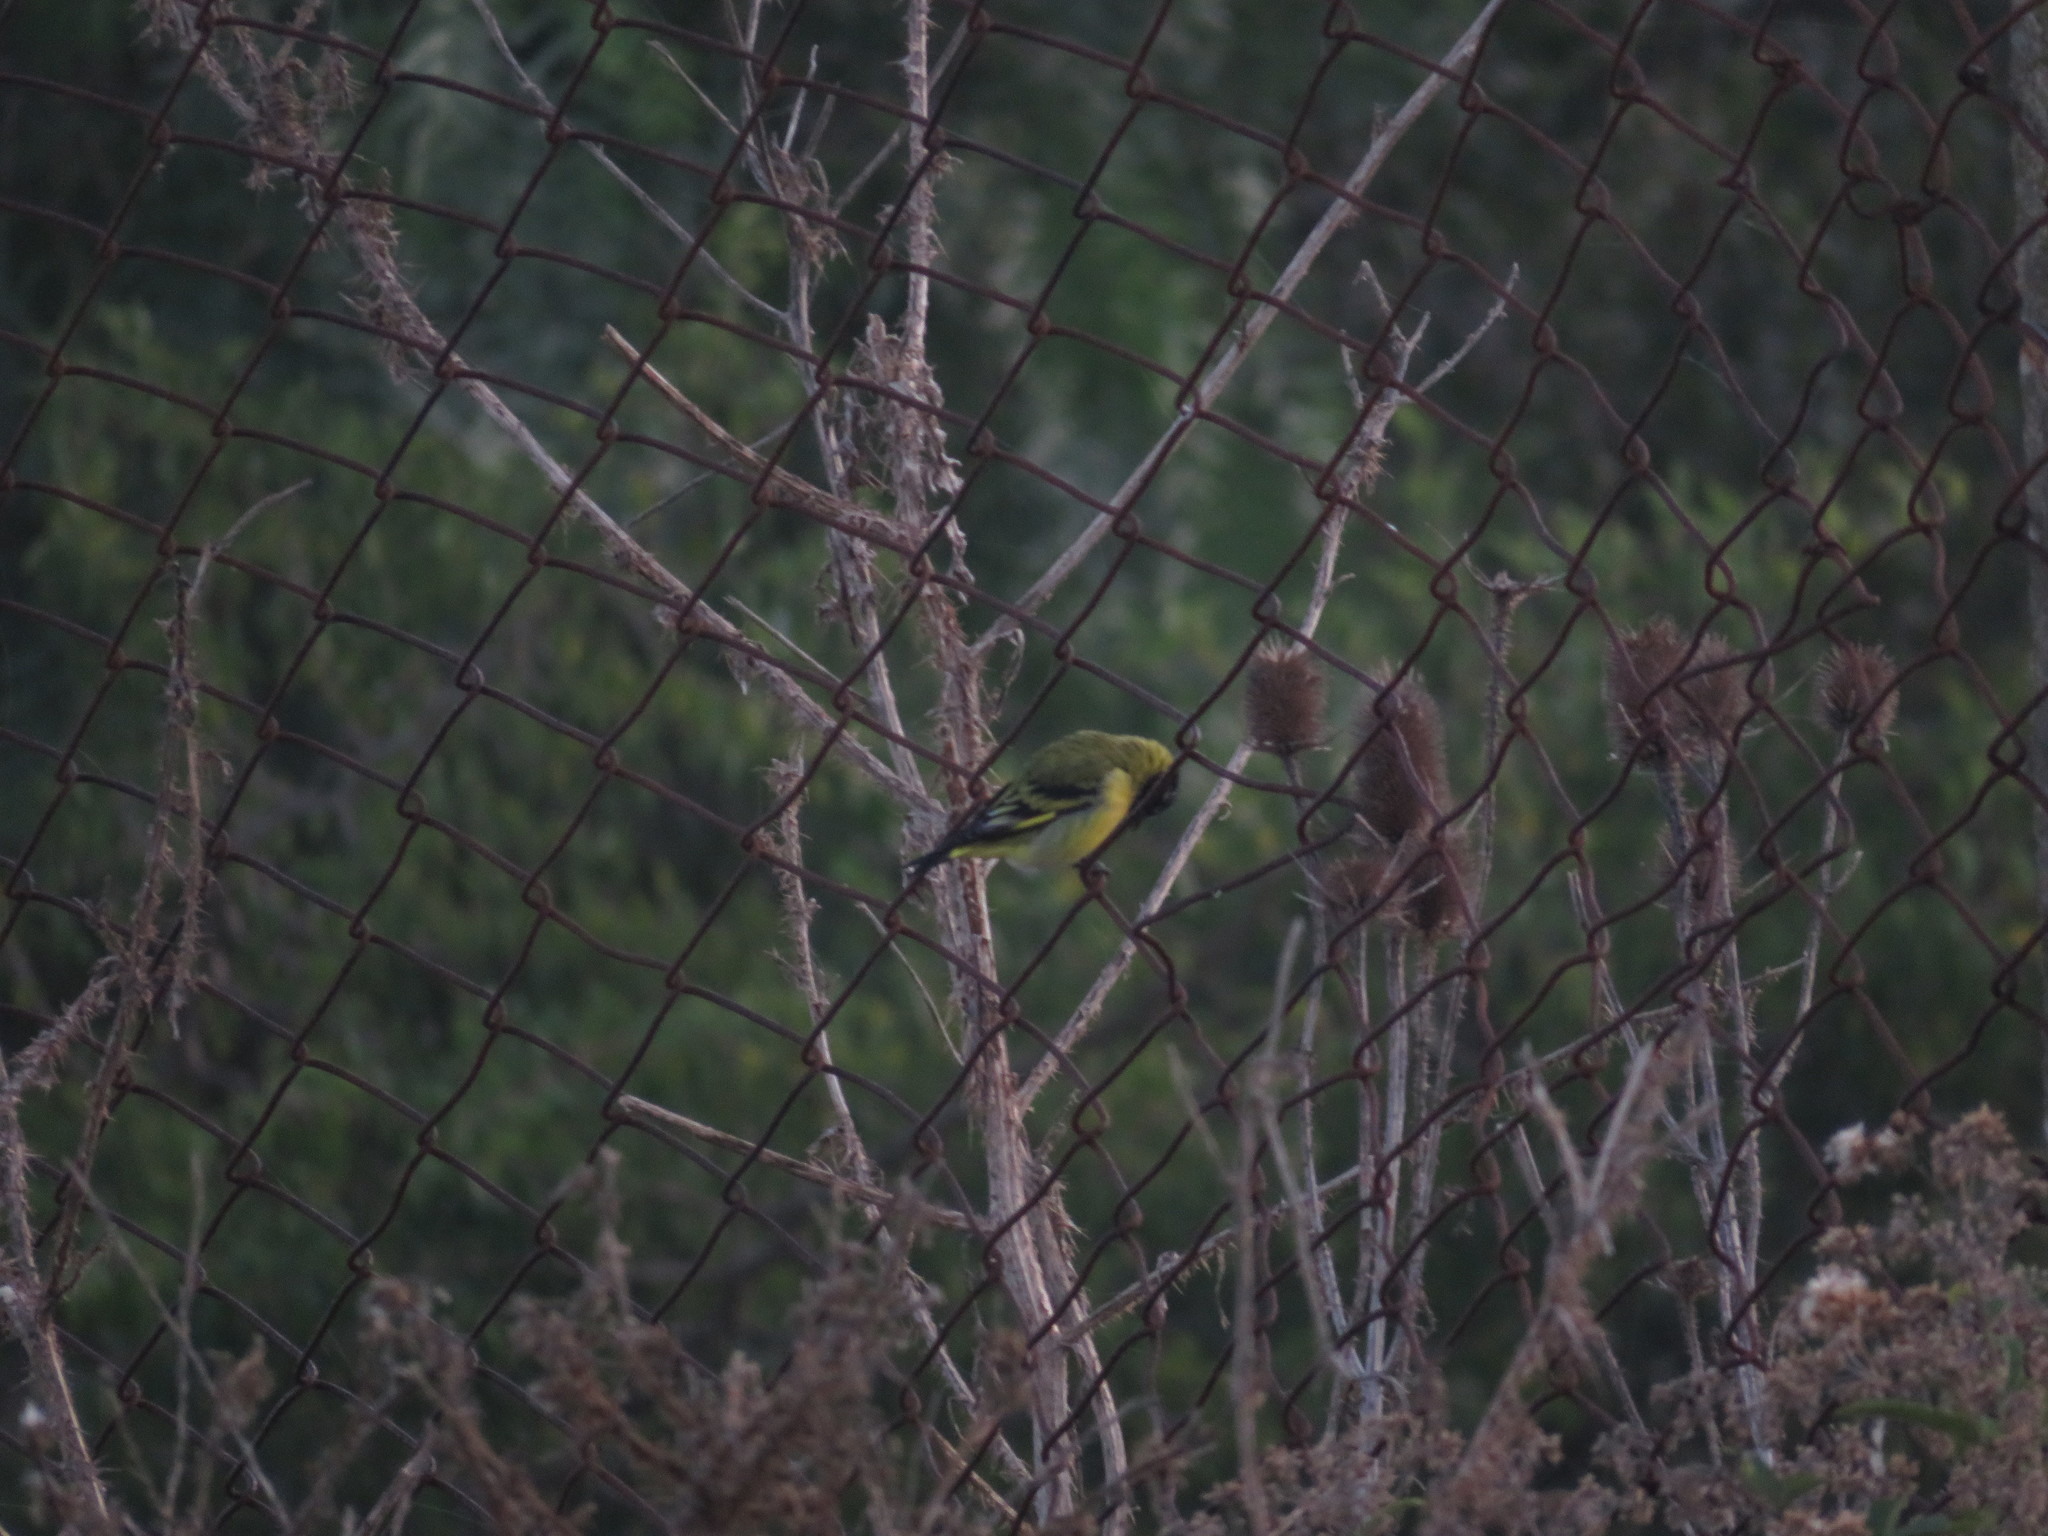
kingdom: Animalia
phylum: Chordata
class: Aves
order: Passeriformes
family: Fringillidae
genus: Spinus
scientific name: Spinus magellanicus
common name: Hooded siskin
